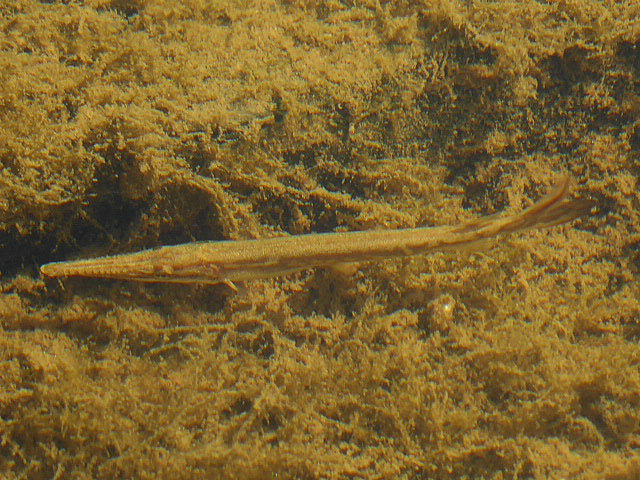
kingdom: Animalia
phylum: Chordata
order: Lepisosteiformes
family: Lepisosteidae
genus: Lepisosteus
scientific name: Lepisosteus osseus
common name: Longnose gar
